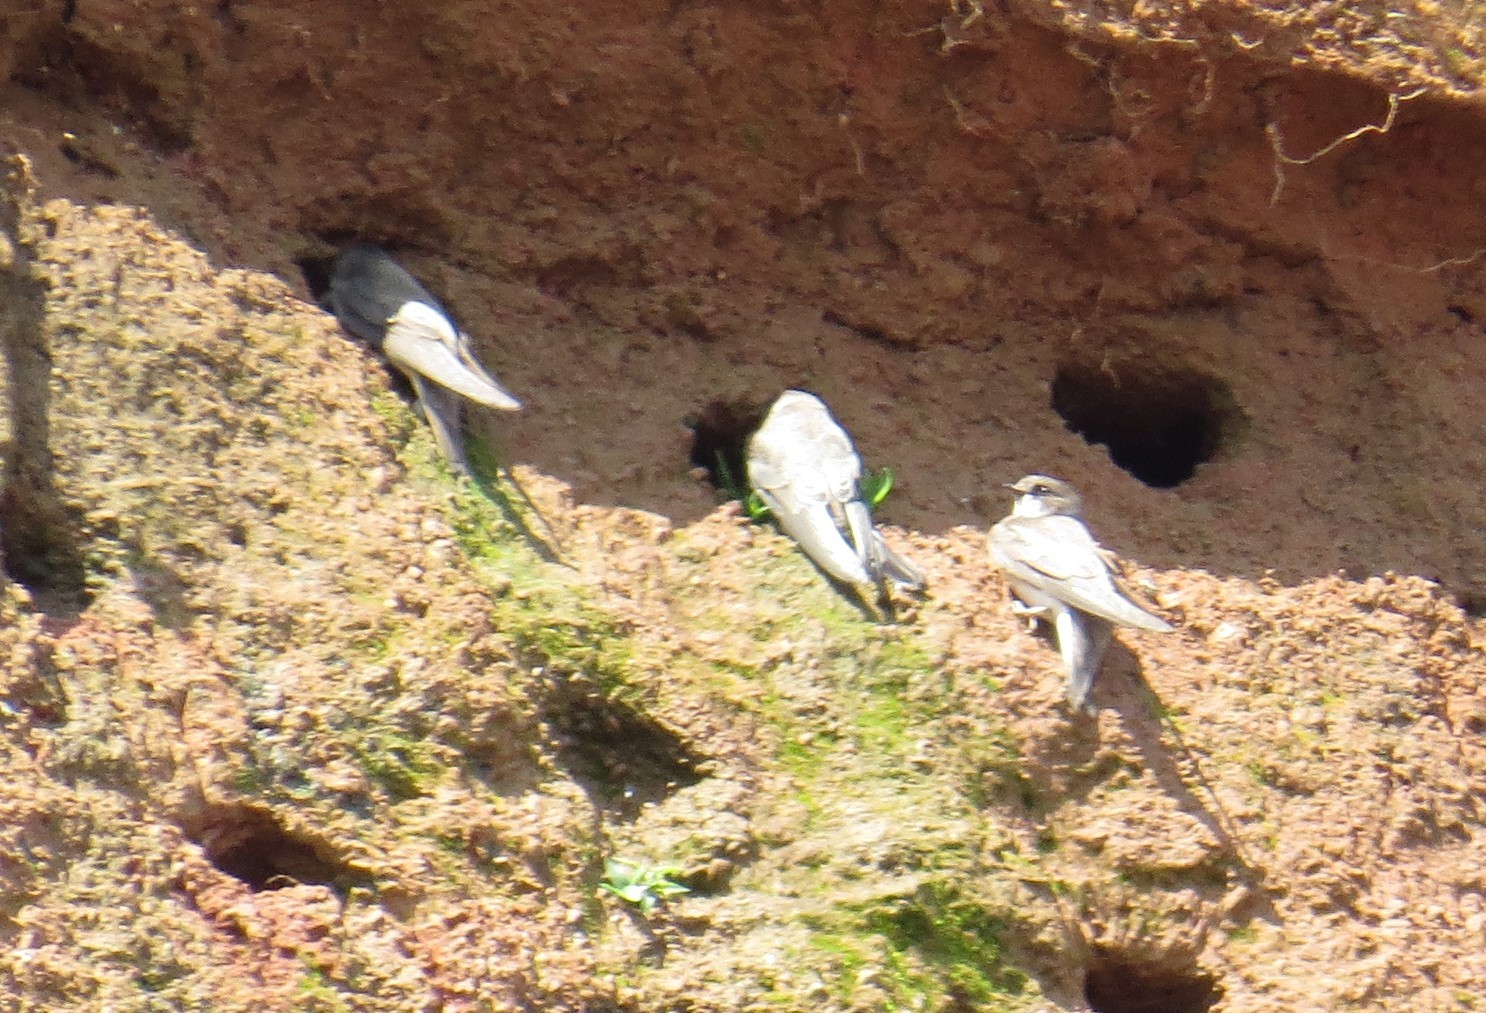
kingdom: Animalia
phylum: Chordata
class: Aves
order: Passeriformes
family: Hirundinidae
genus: Riparia
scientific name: Riparia riparia
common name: Sand martin
